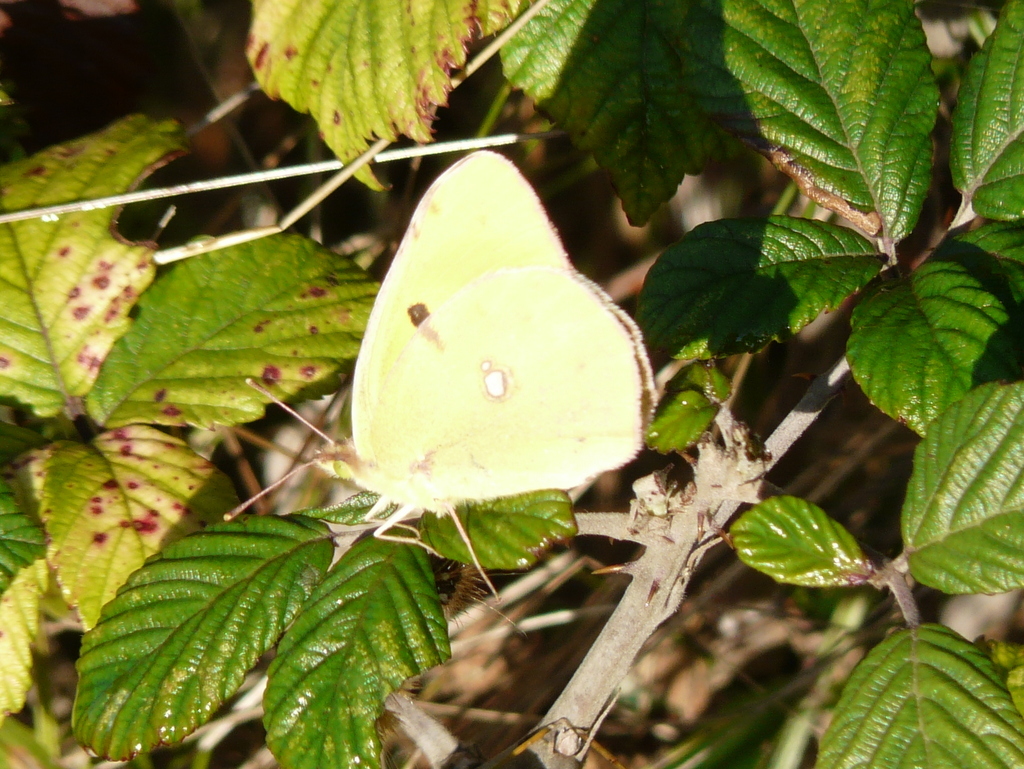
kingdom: Animalia
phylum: Arthropoda
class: Insecta
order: Lepidoptera
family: Pieridae
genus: Colias
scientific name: Colias croceus
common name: Clouded yellow
